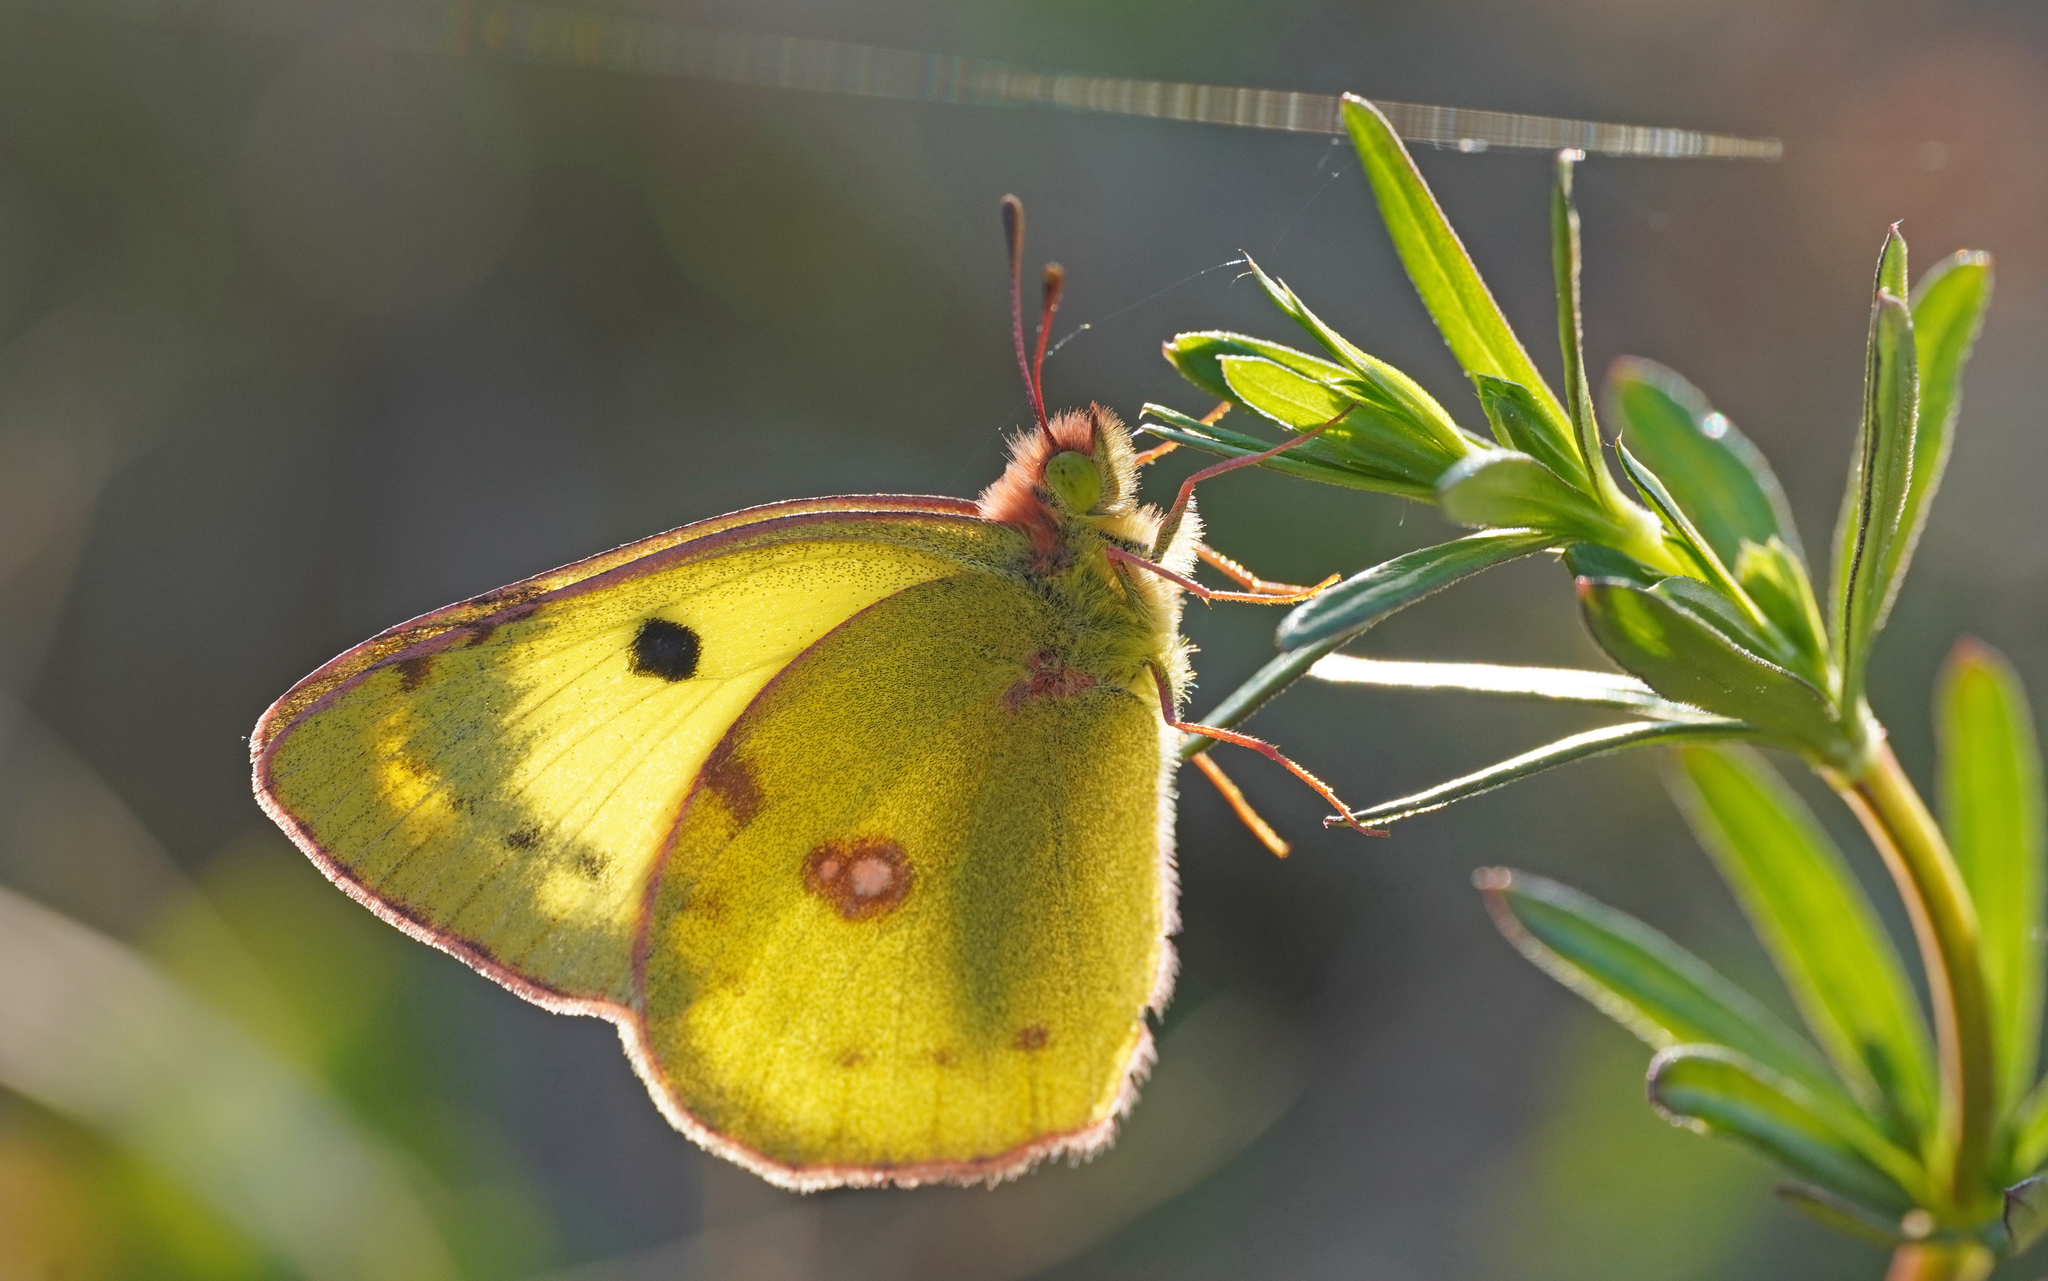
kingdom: Animalia
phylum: Arthropoda
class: Insecta
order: Lepidoptera
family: Pieridae
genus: Colias
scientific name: Colias alfacariensis
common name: Berger's clouded yellow
